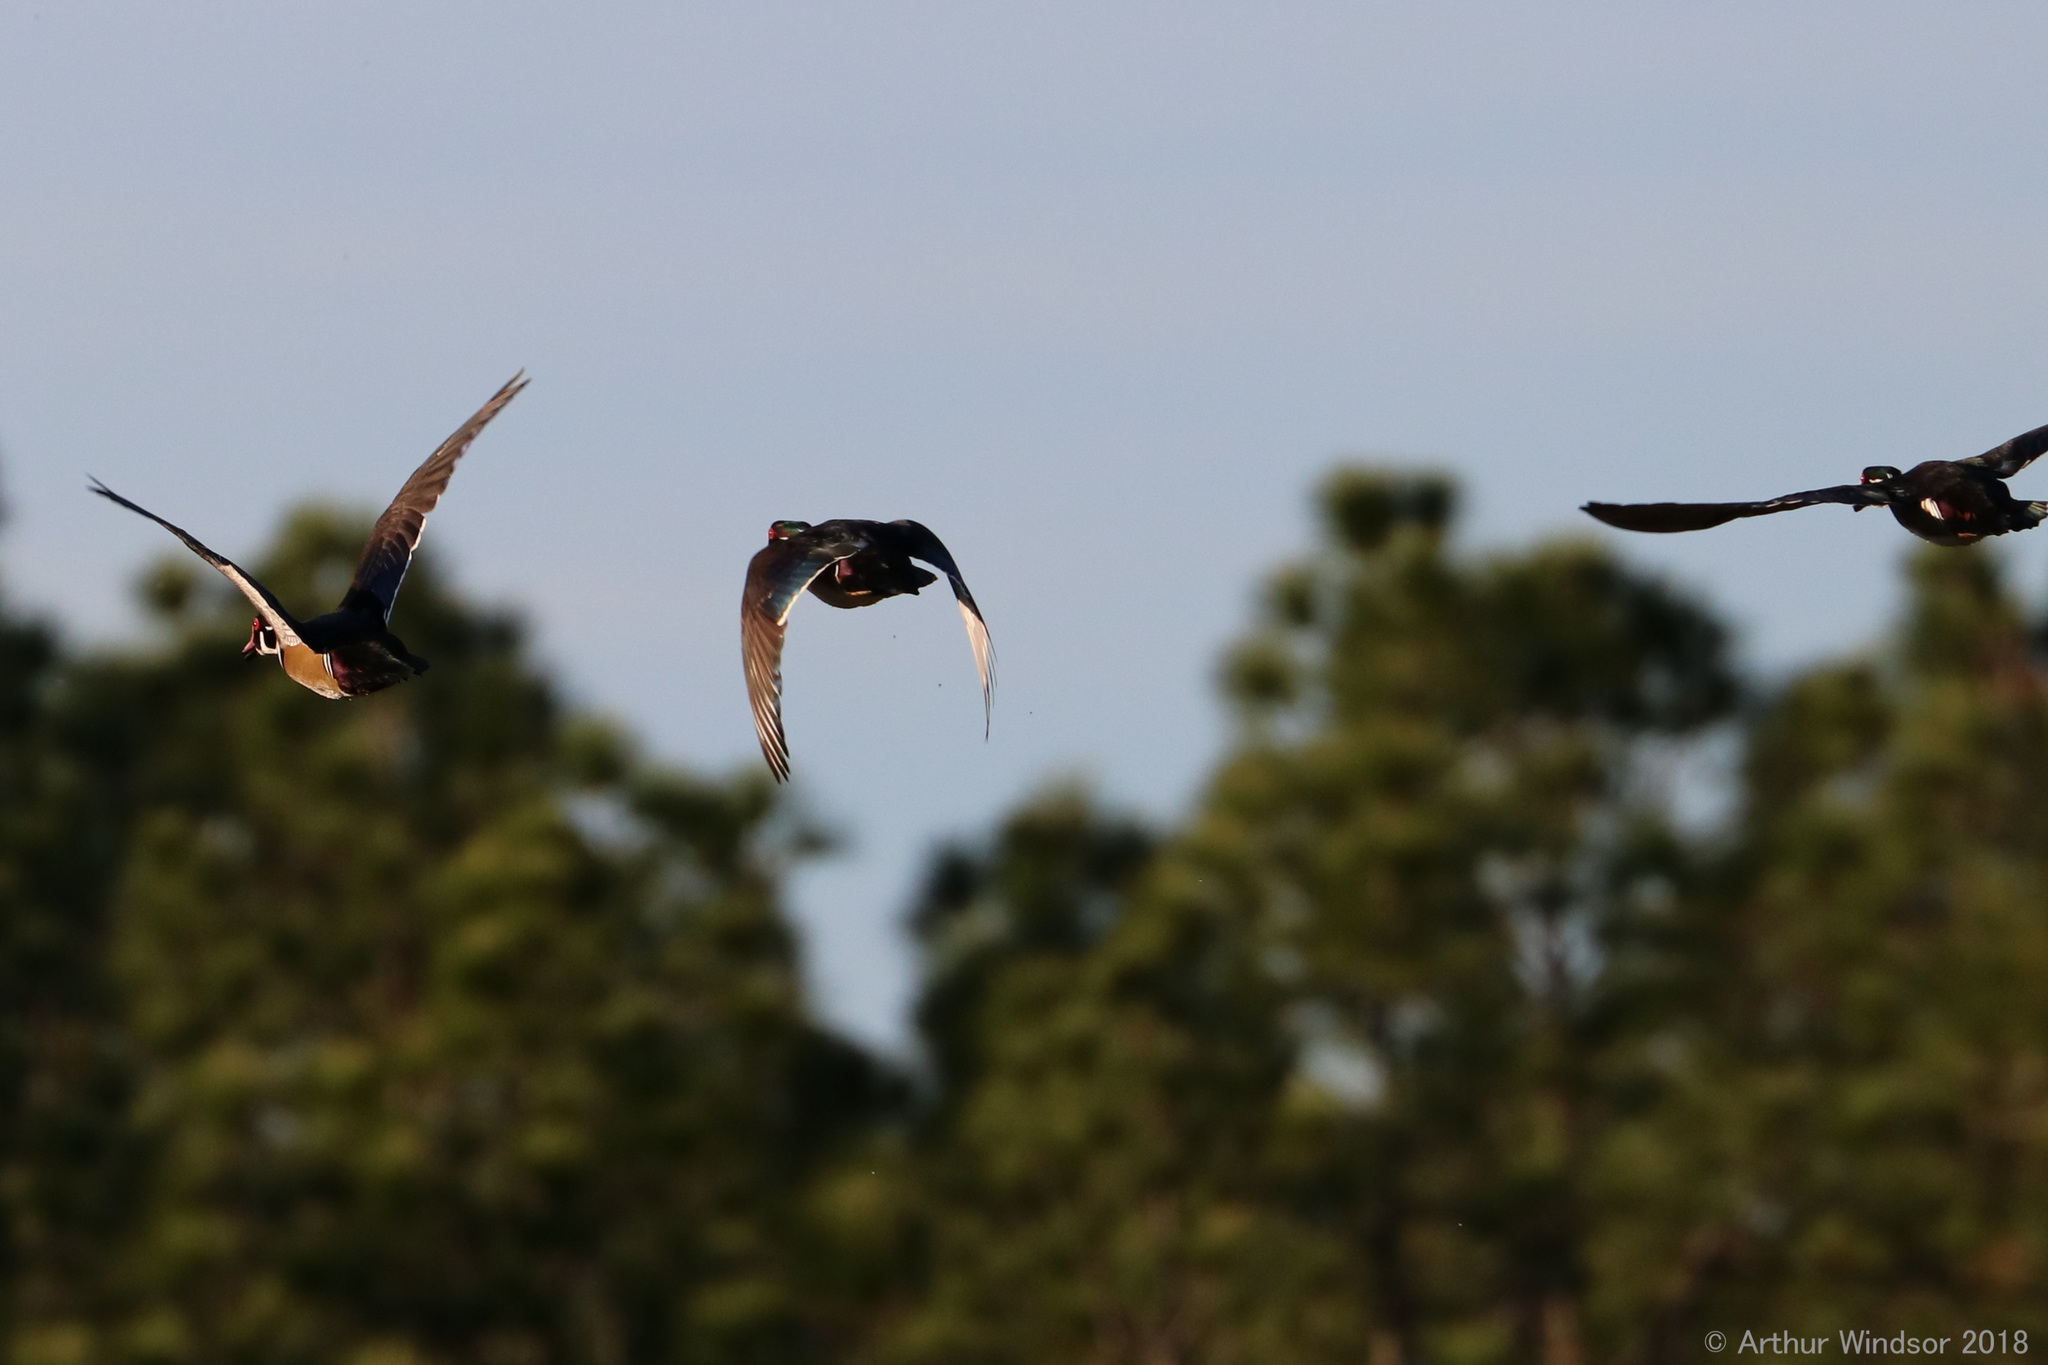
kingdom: Animalia
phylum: Chordata
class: Aves
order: Anseriformes
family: Anatidae
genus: Aix
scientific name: Aix sponsa
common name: Wood duck
